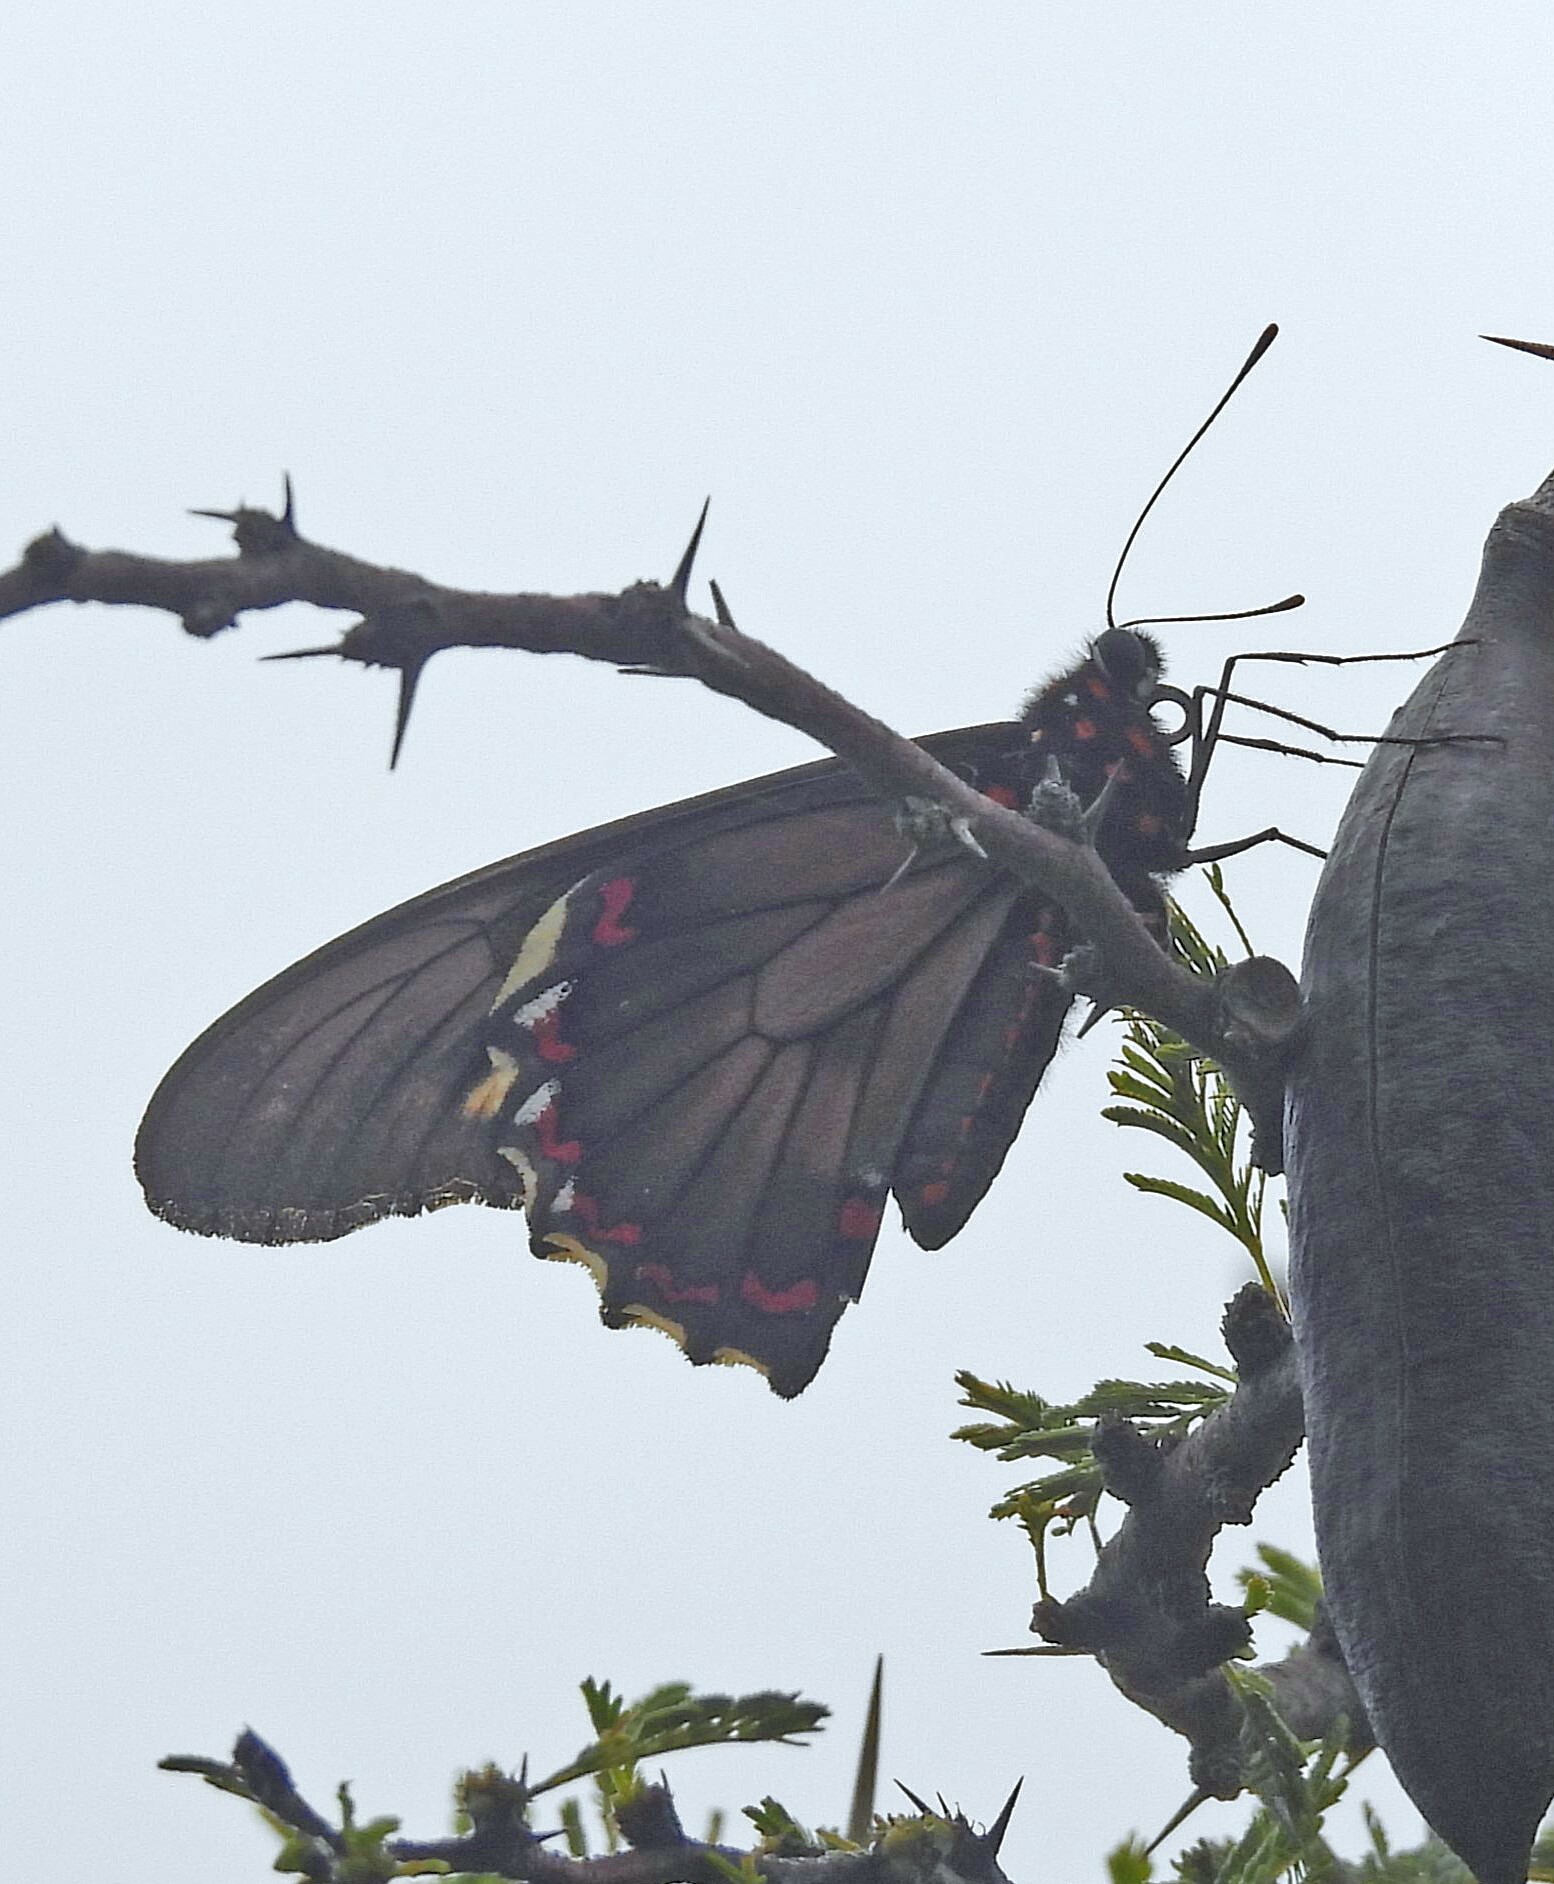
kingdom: Animalia
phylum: Arthropoda
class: Insecta
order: Lepidoptera
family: Papilionidae
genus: Battus
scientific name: Battus polydamas
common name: Polydamas swallowtail
